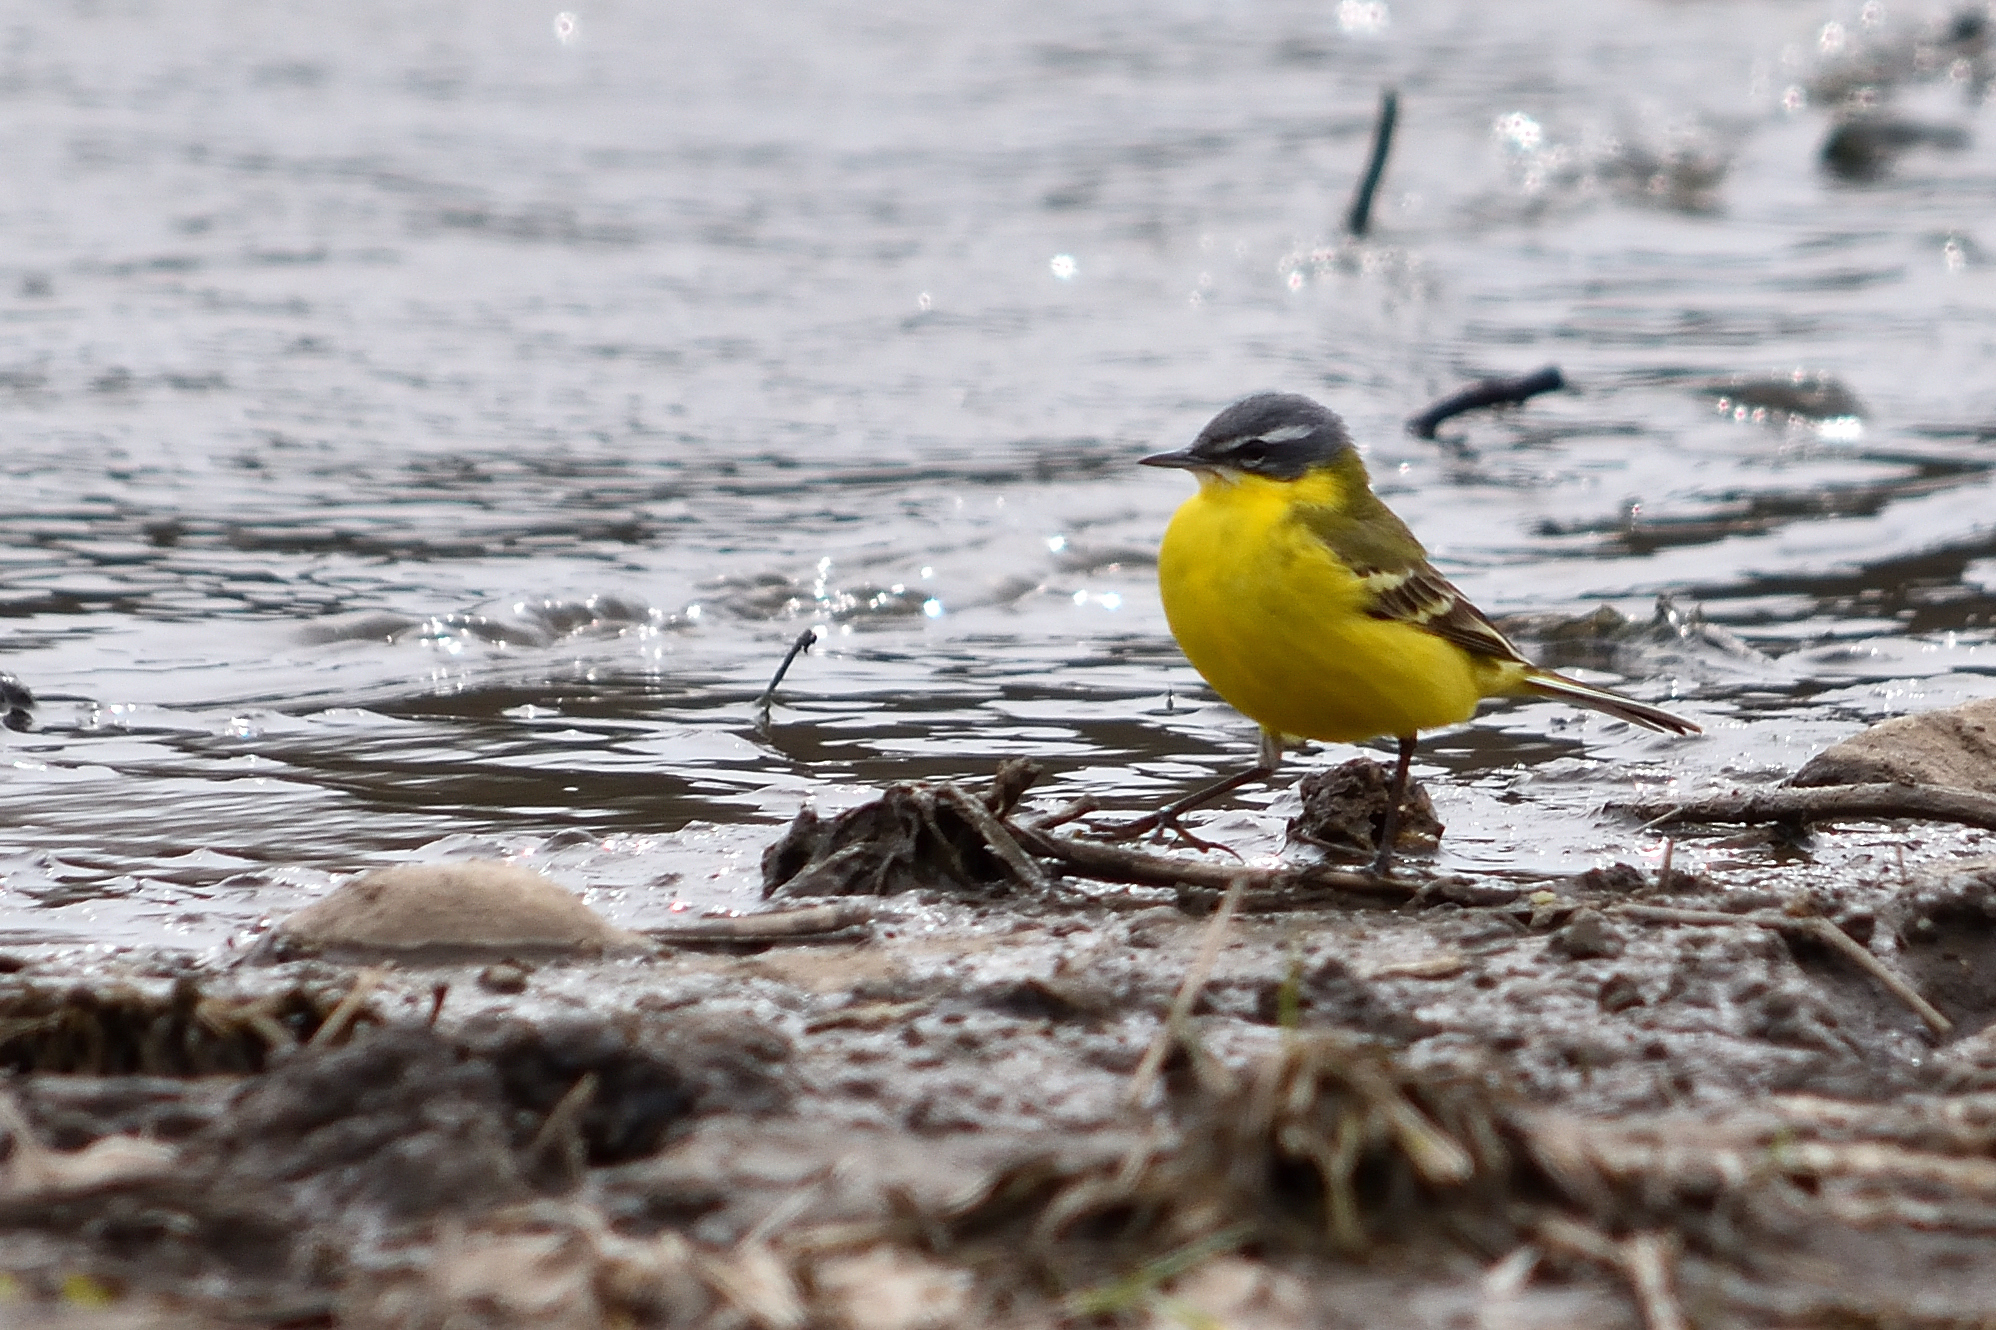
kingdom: Animalia
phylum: Chordata
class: Aves
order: Passeriformes
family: Motacillidae
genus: Motacilla
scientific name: Motacilla flava
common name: Western yellow wagtail
